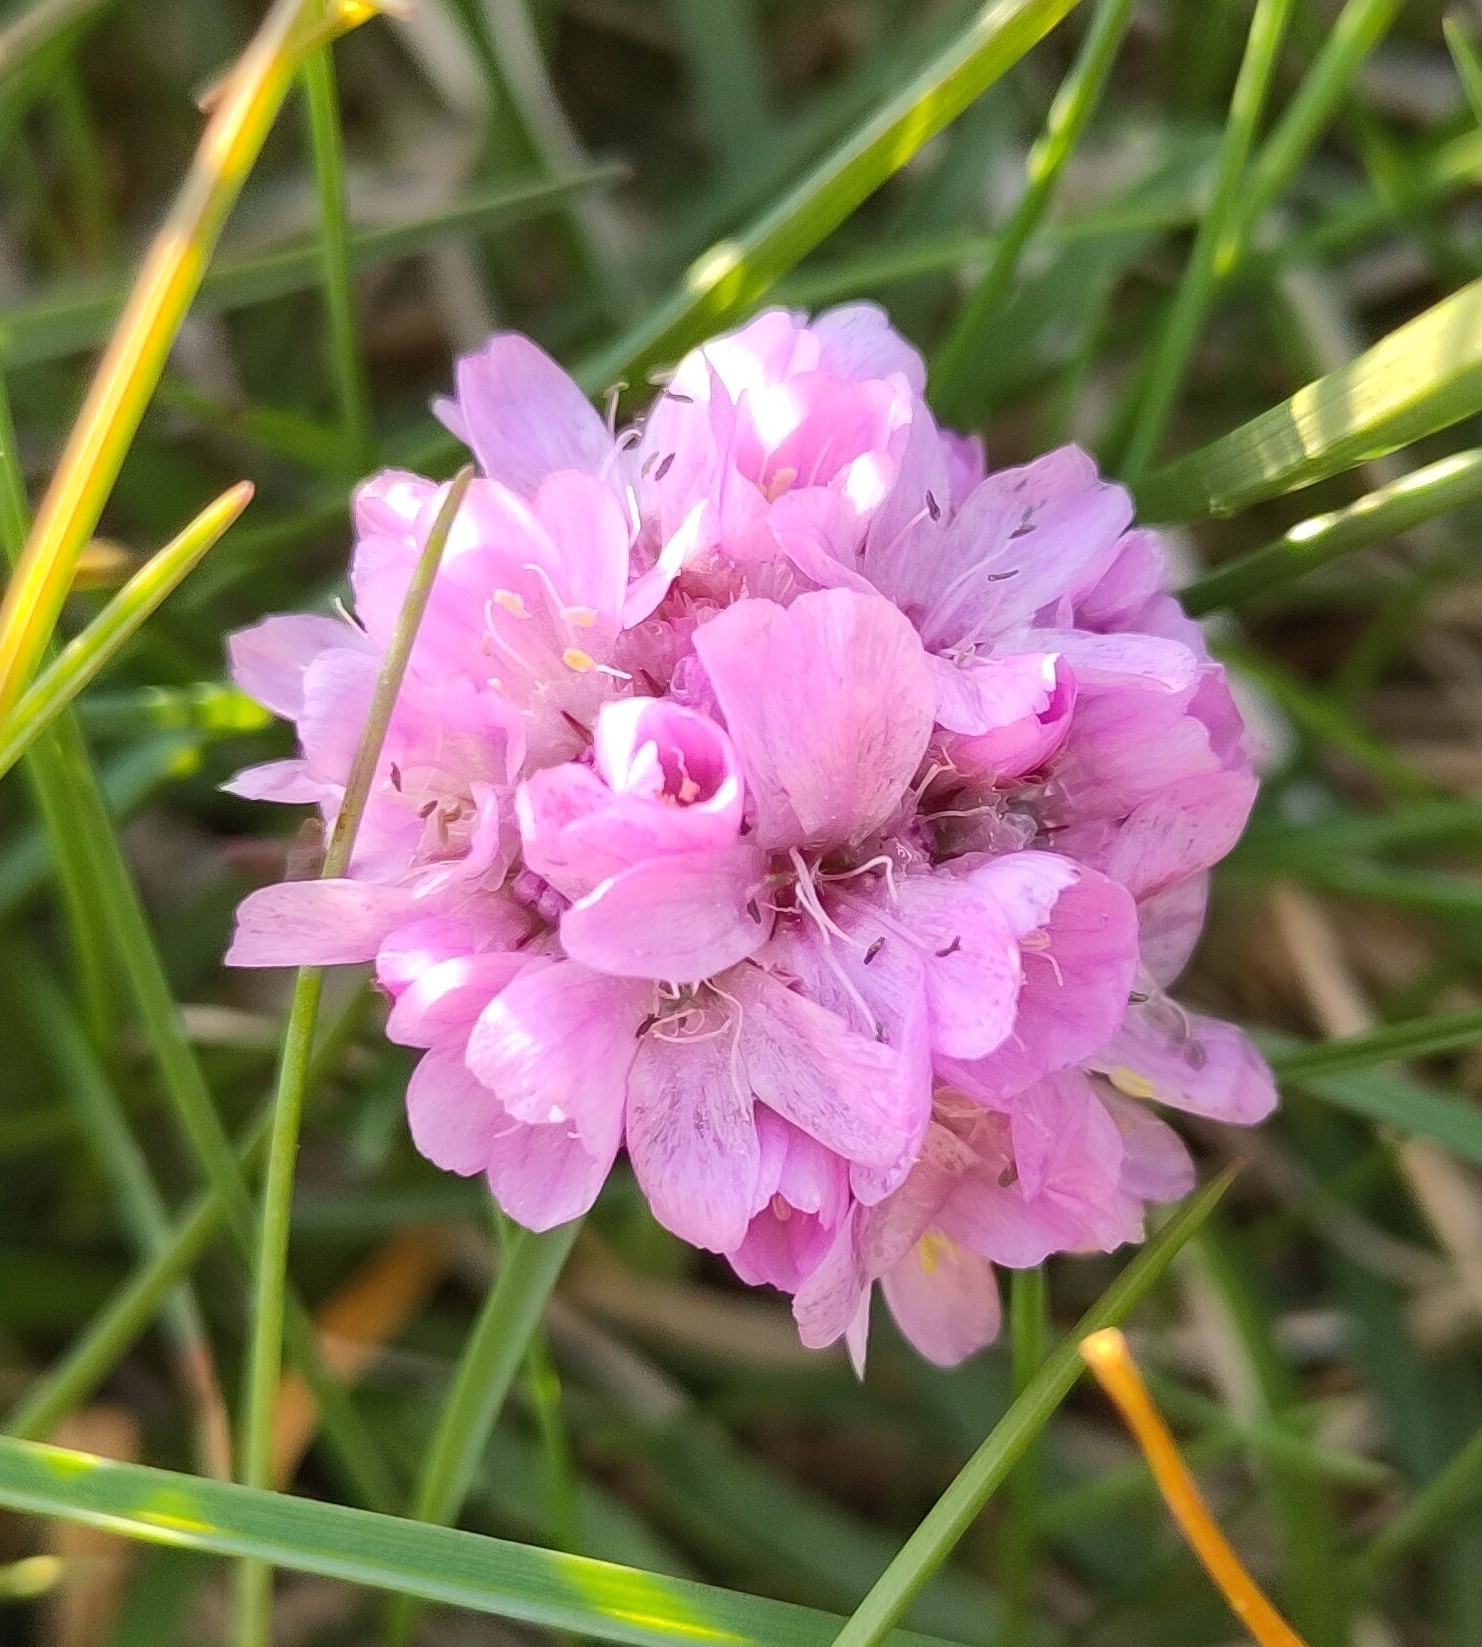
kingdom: Plantae
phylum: Tracheophyta
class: Magnoliopsida
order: Caryophyllales
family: Plumbaginaceae
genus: Armeria
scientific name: Armeria maritima
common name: Thrift
